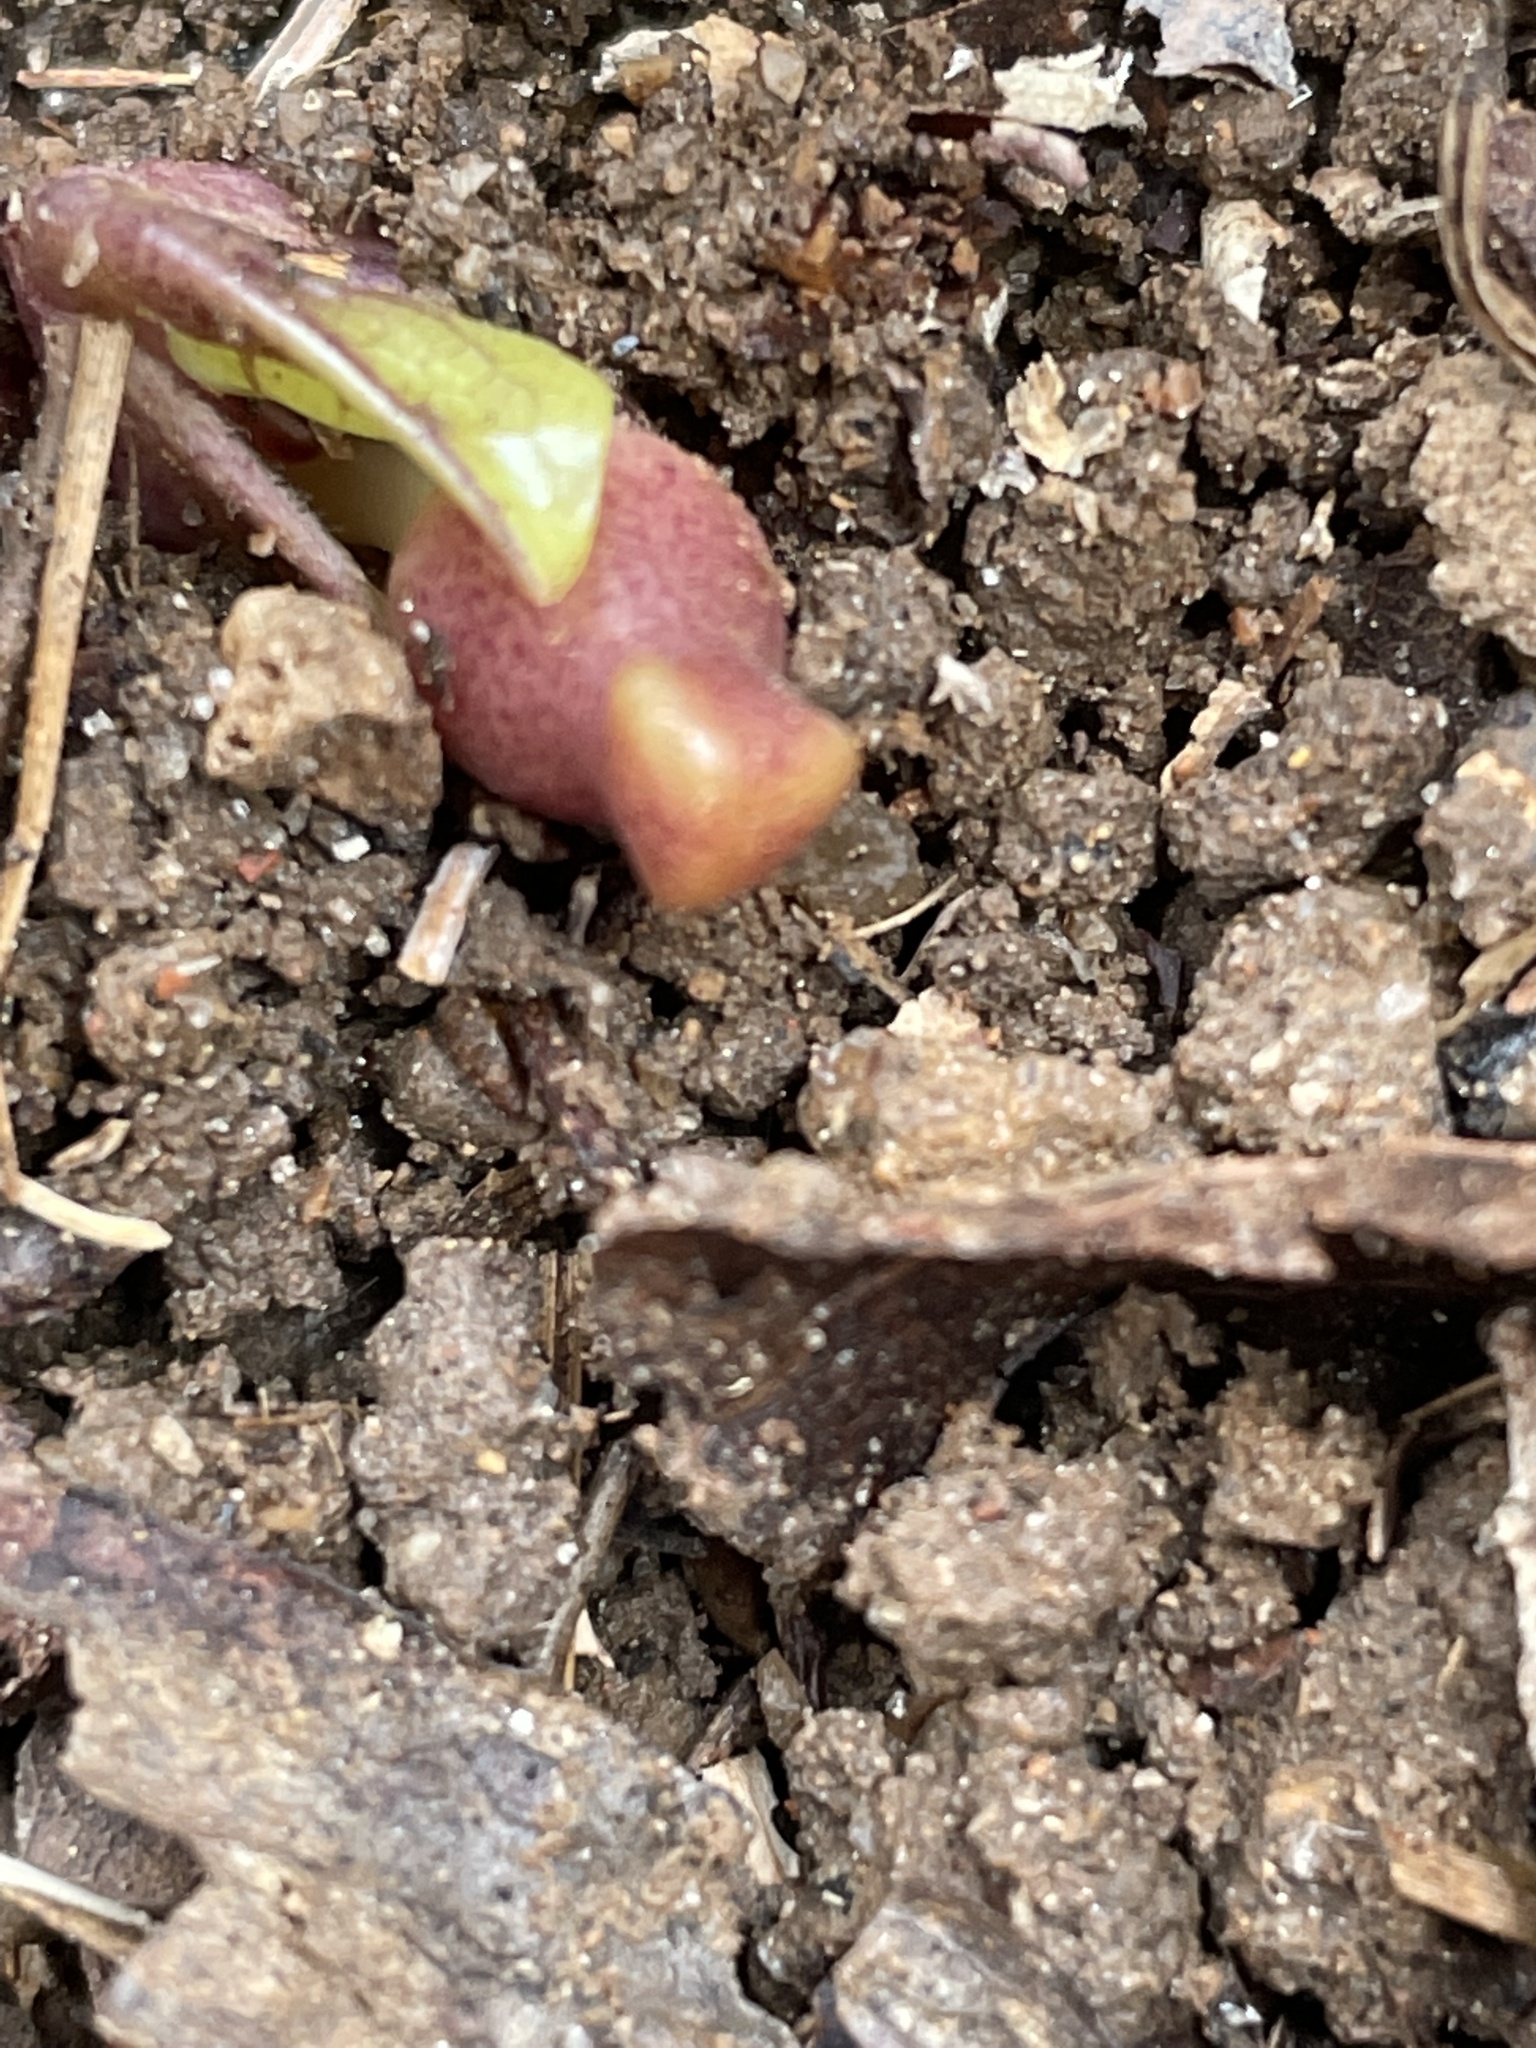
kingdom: Plantae
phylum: Tracheophyta
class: Magnoliopsida
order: Piperales
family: Aristolochiaceae
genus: Hexastylis
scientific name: Hexastylis arifolia
